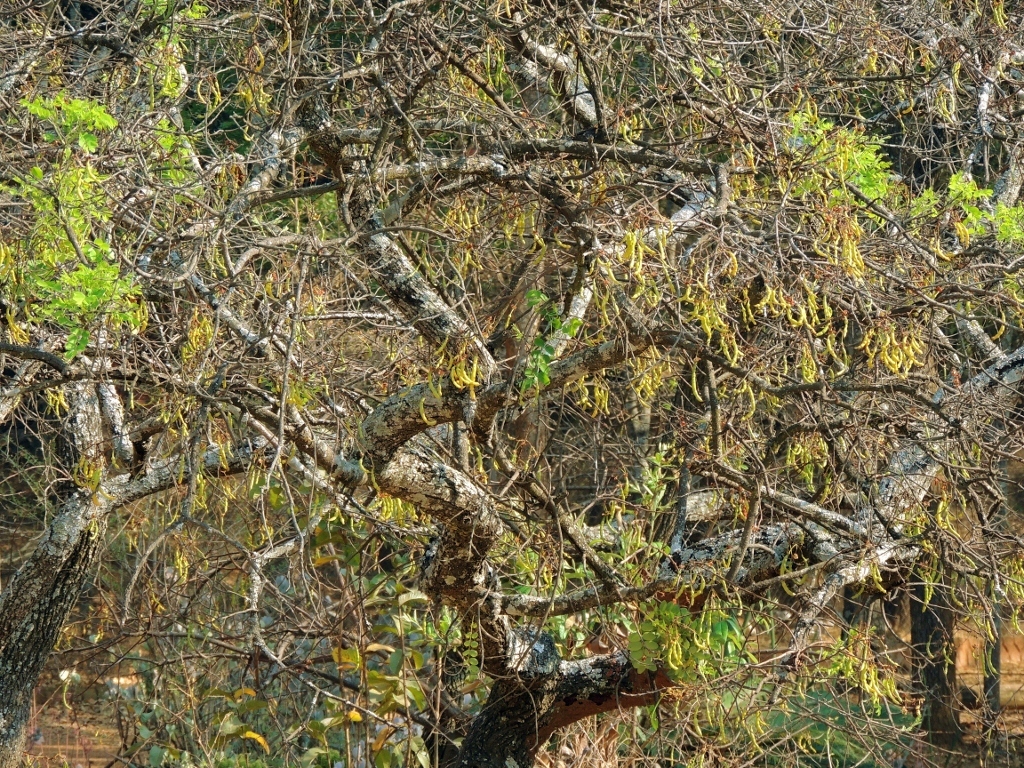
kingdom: Plantae
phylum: Tracheophyta
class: Magnoliopsida
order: Fabales
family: Fabaceae
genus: Senna
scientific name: Senna singueana
